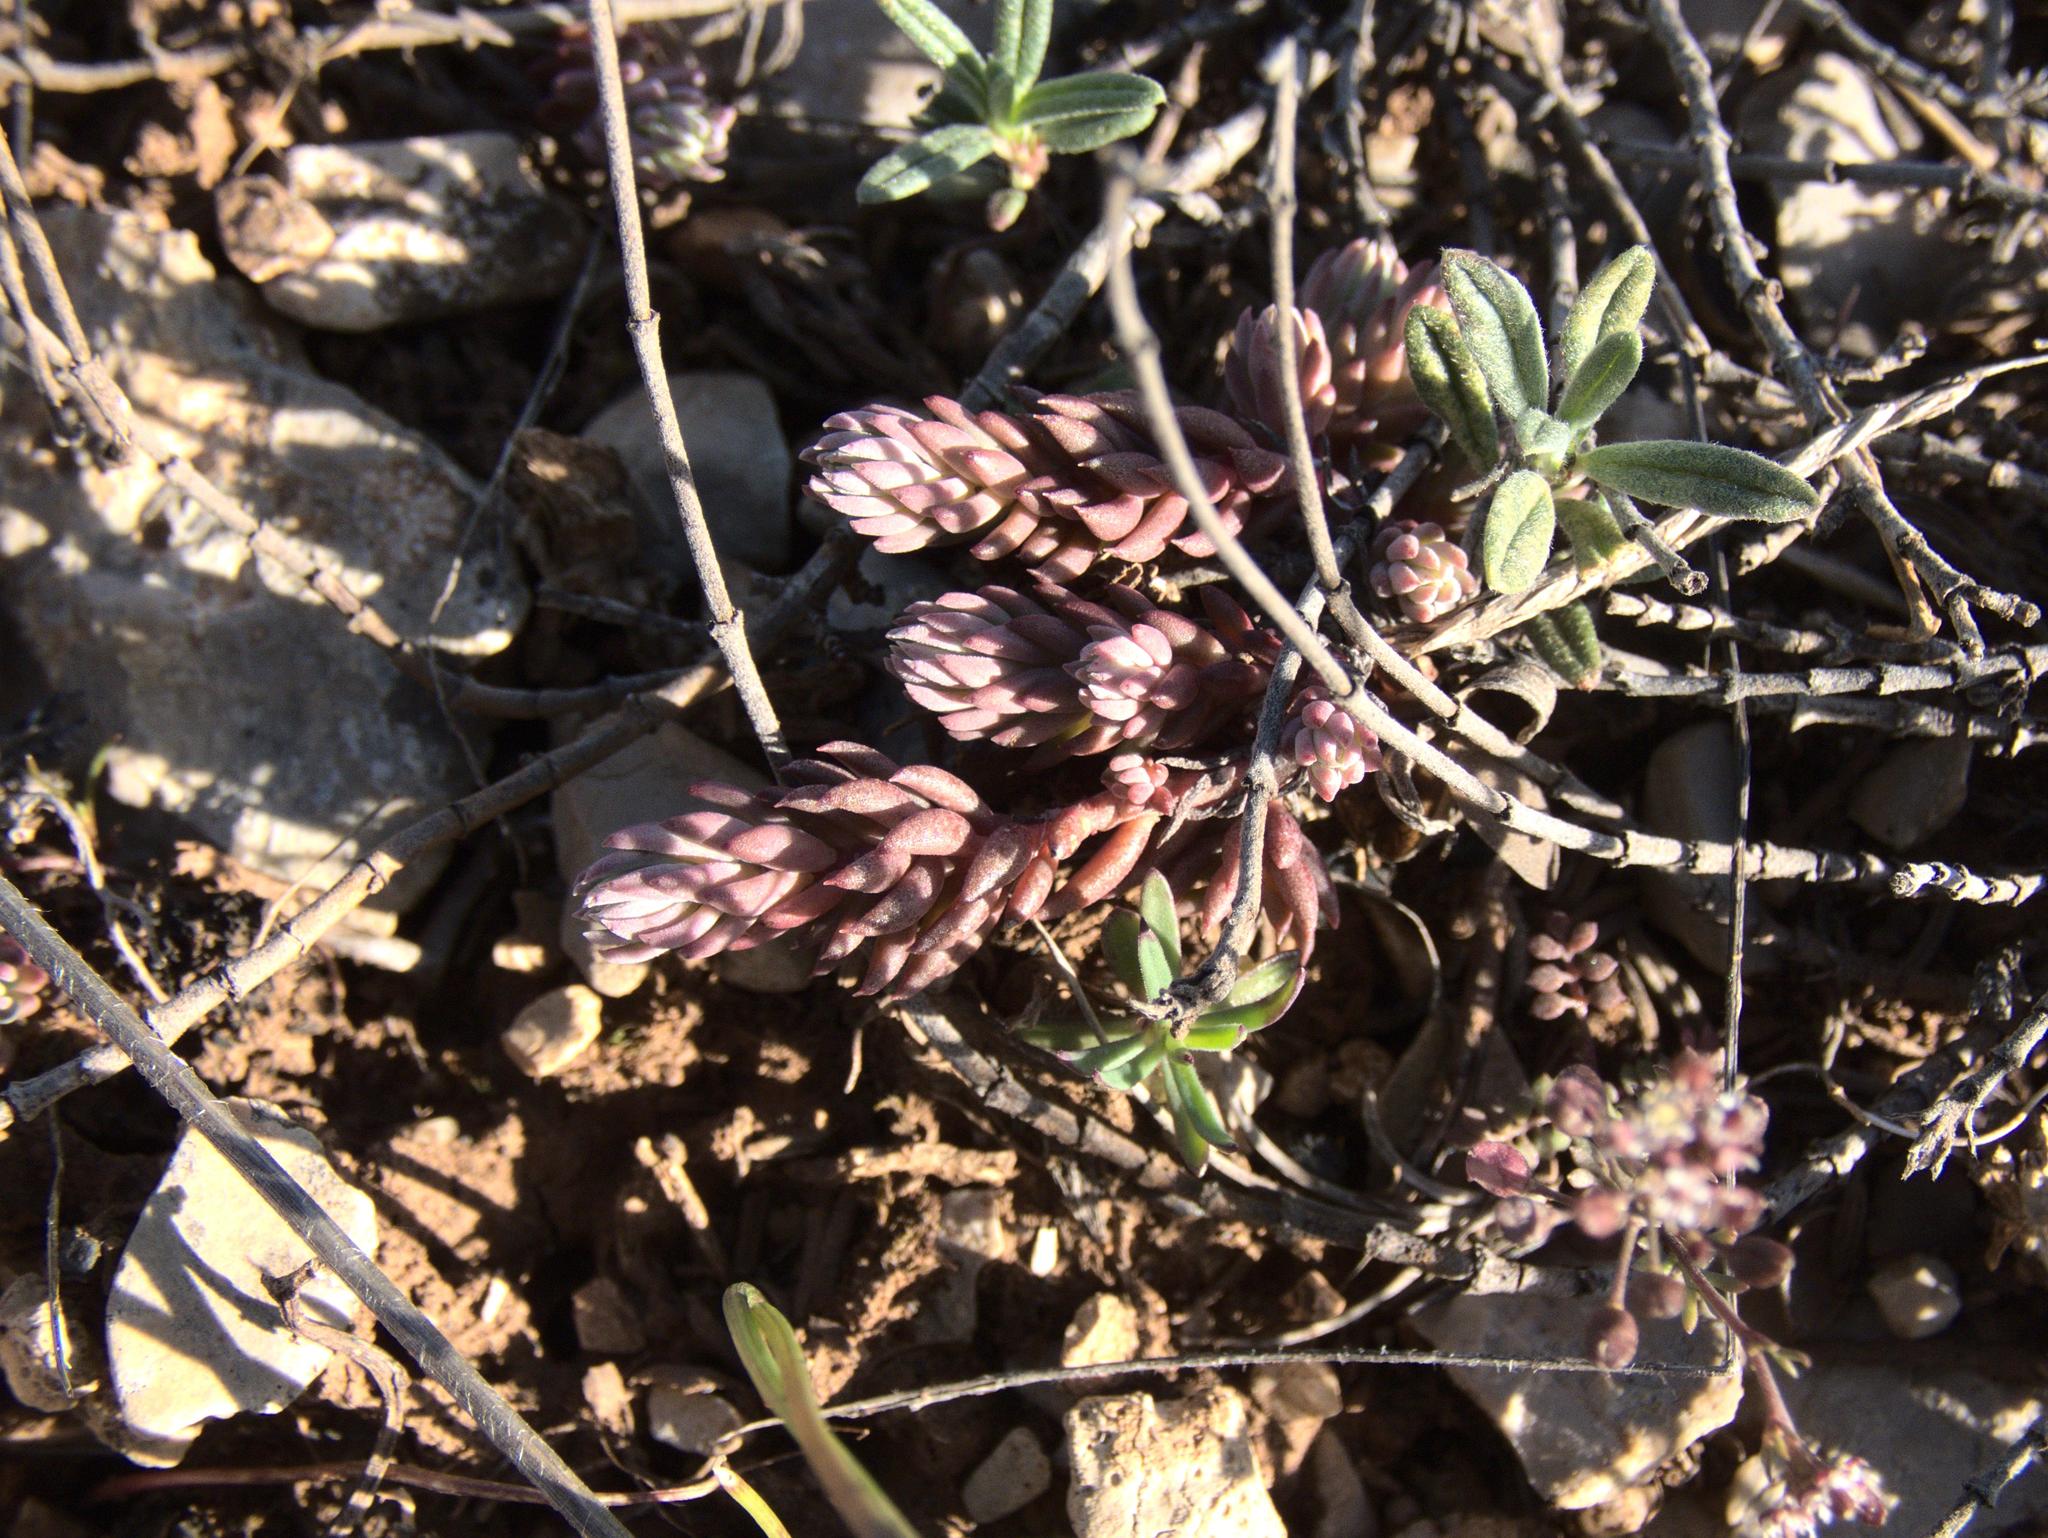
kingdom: Plantae
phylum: Tracheophyta
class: Magnoliopsida
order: Saxifragales
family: Crassulaceae
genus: Petrosedum
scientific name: Petrosedum sediforme
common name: Pale stonecrop
